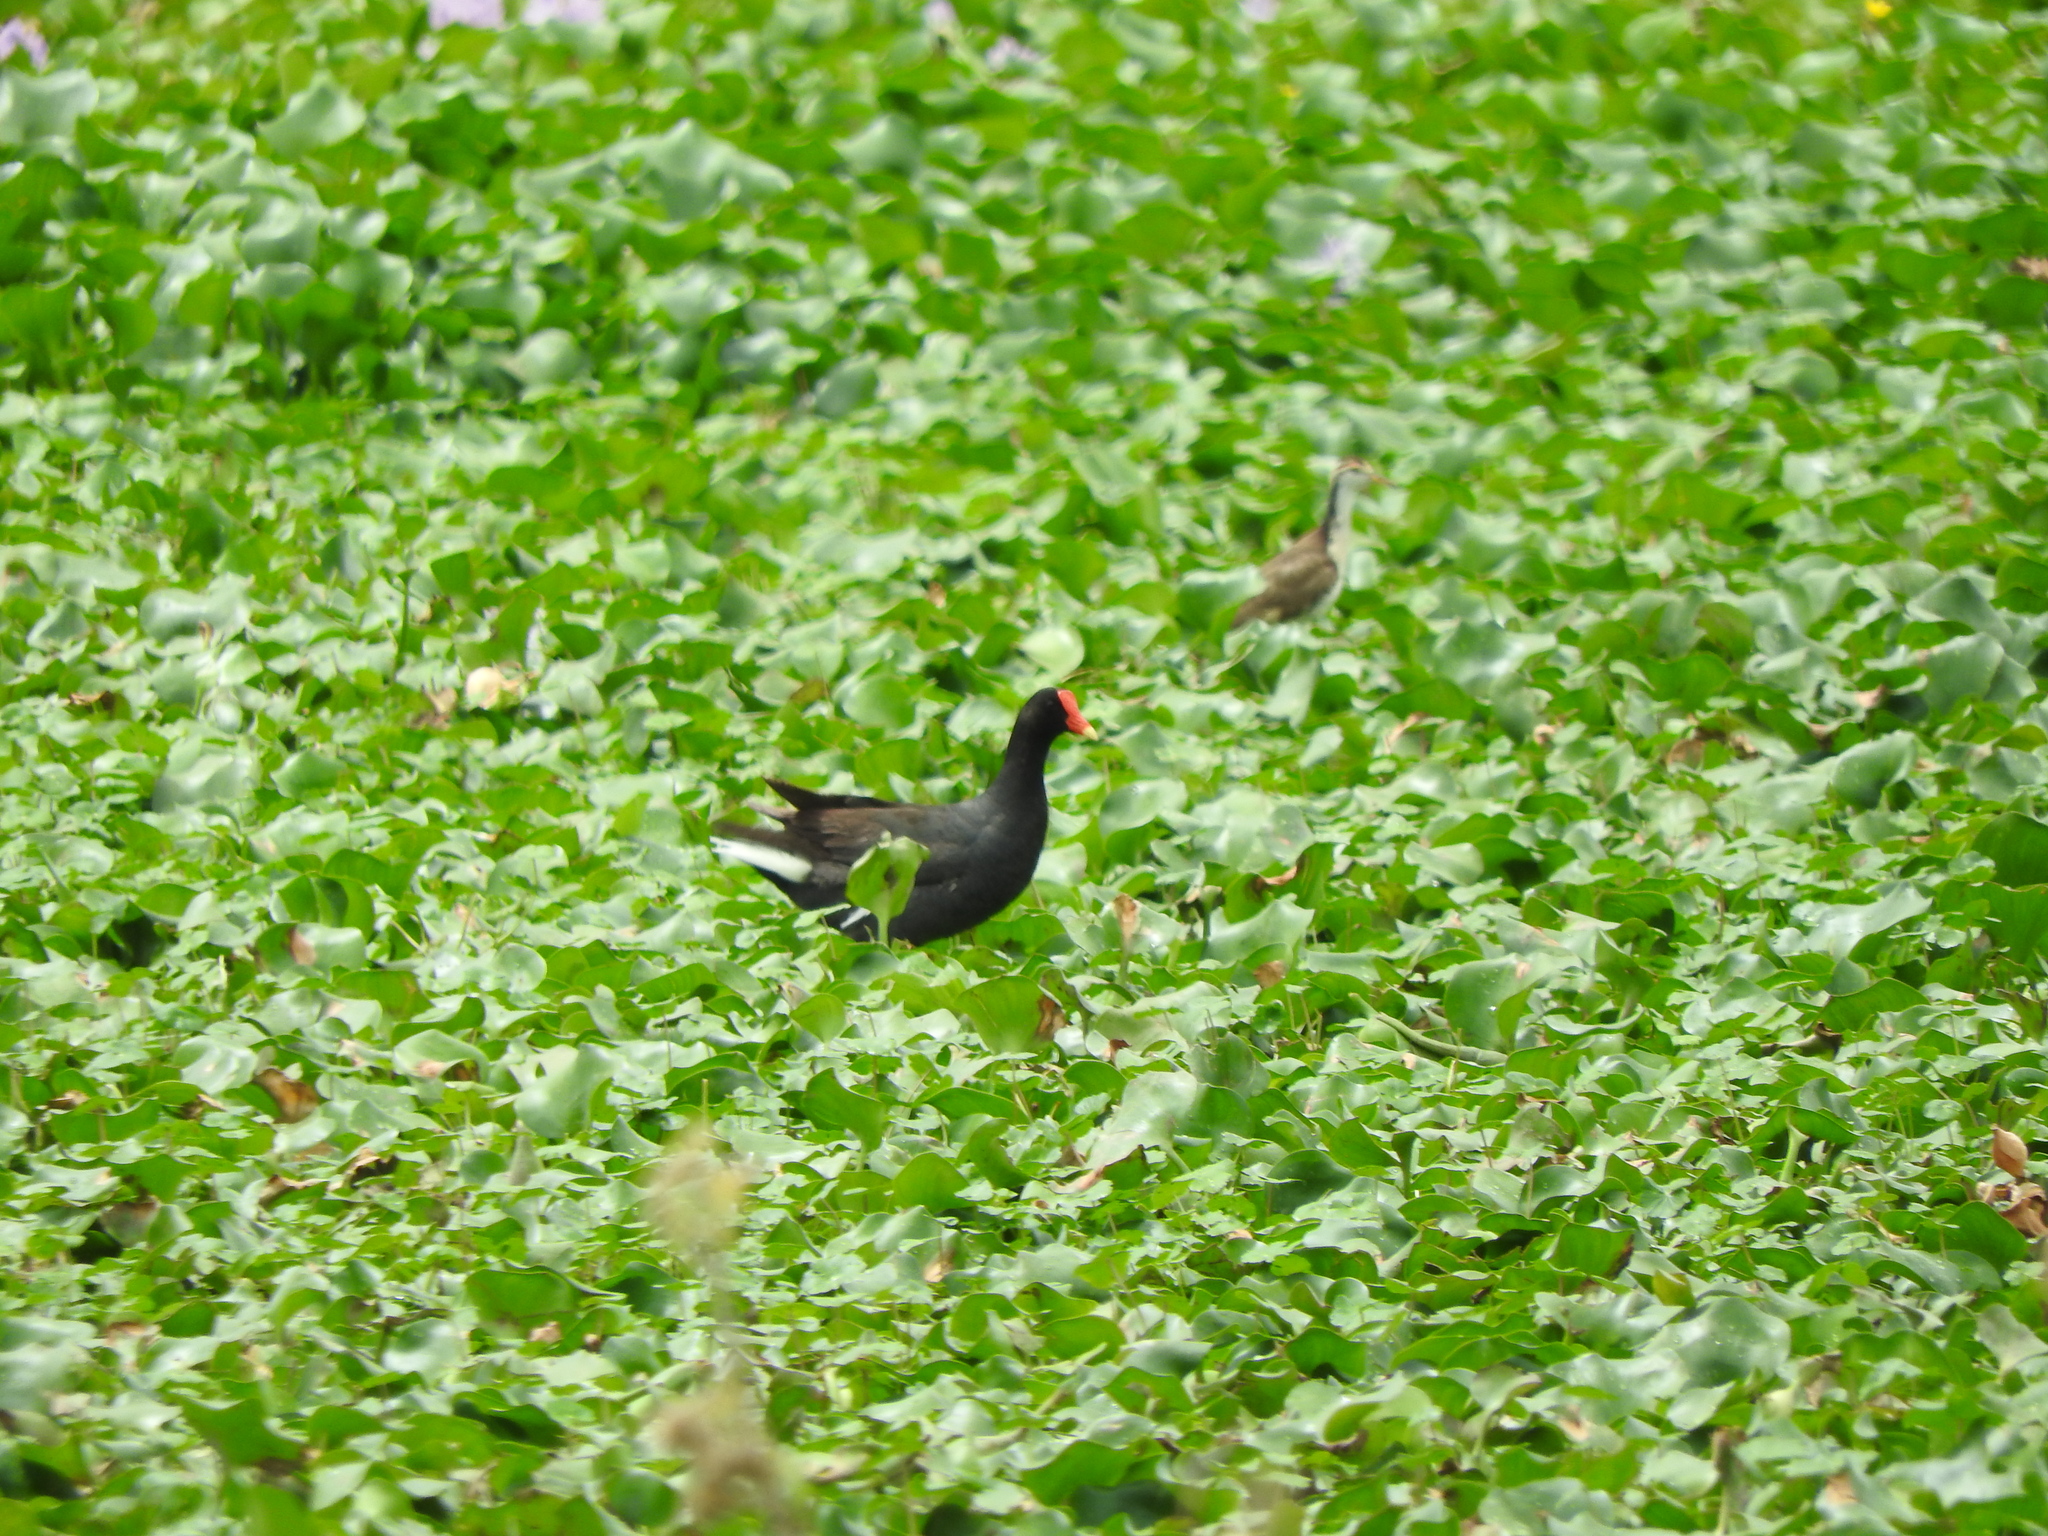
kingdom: Animalia
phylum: Chordata
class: Aves
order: Charadriiformes
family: Jacanidae
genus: Jacana
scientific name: Jacana spinosa
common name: Northern jacana
